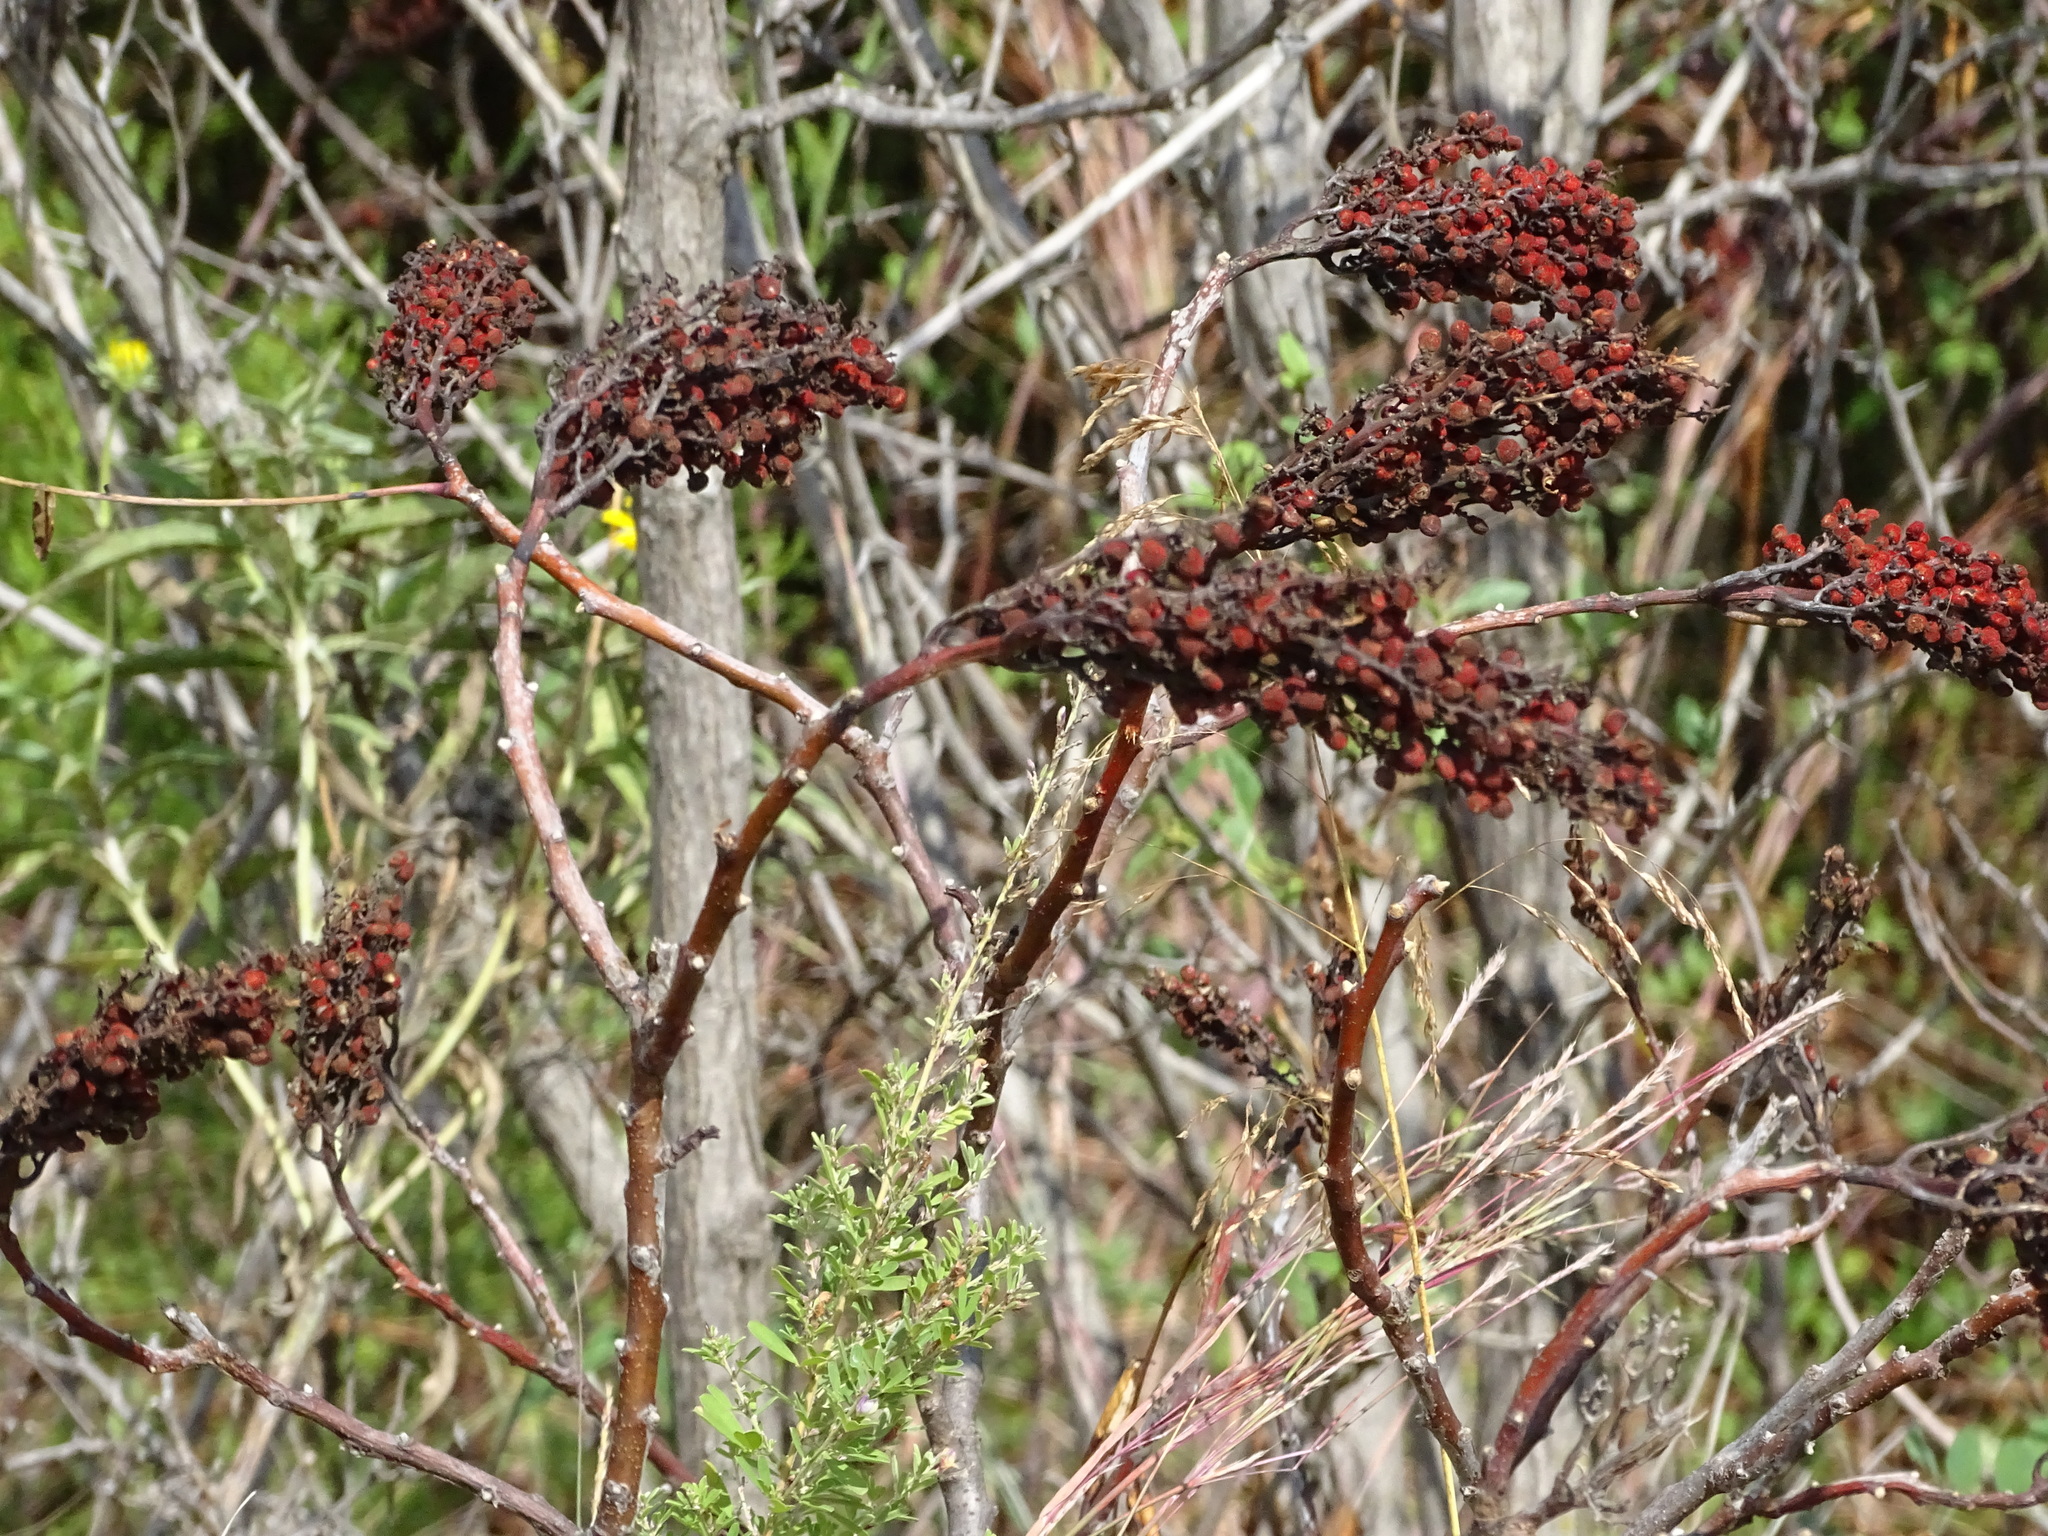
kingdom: Plantae
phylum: Tracheophyta
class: Magnoliopsida
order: Sapindales
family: Anacardiaceae
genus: Rhus
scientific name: Rhus glabra
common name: Scarlet sumac
